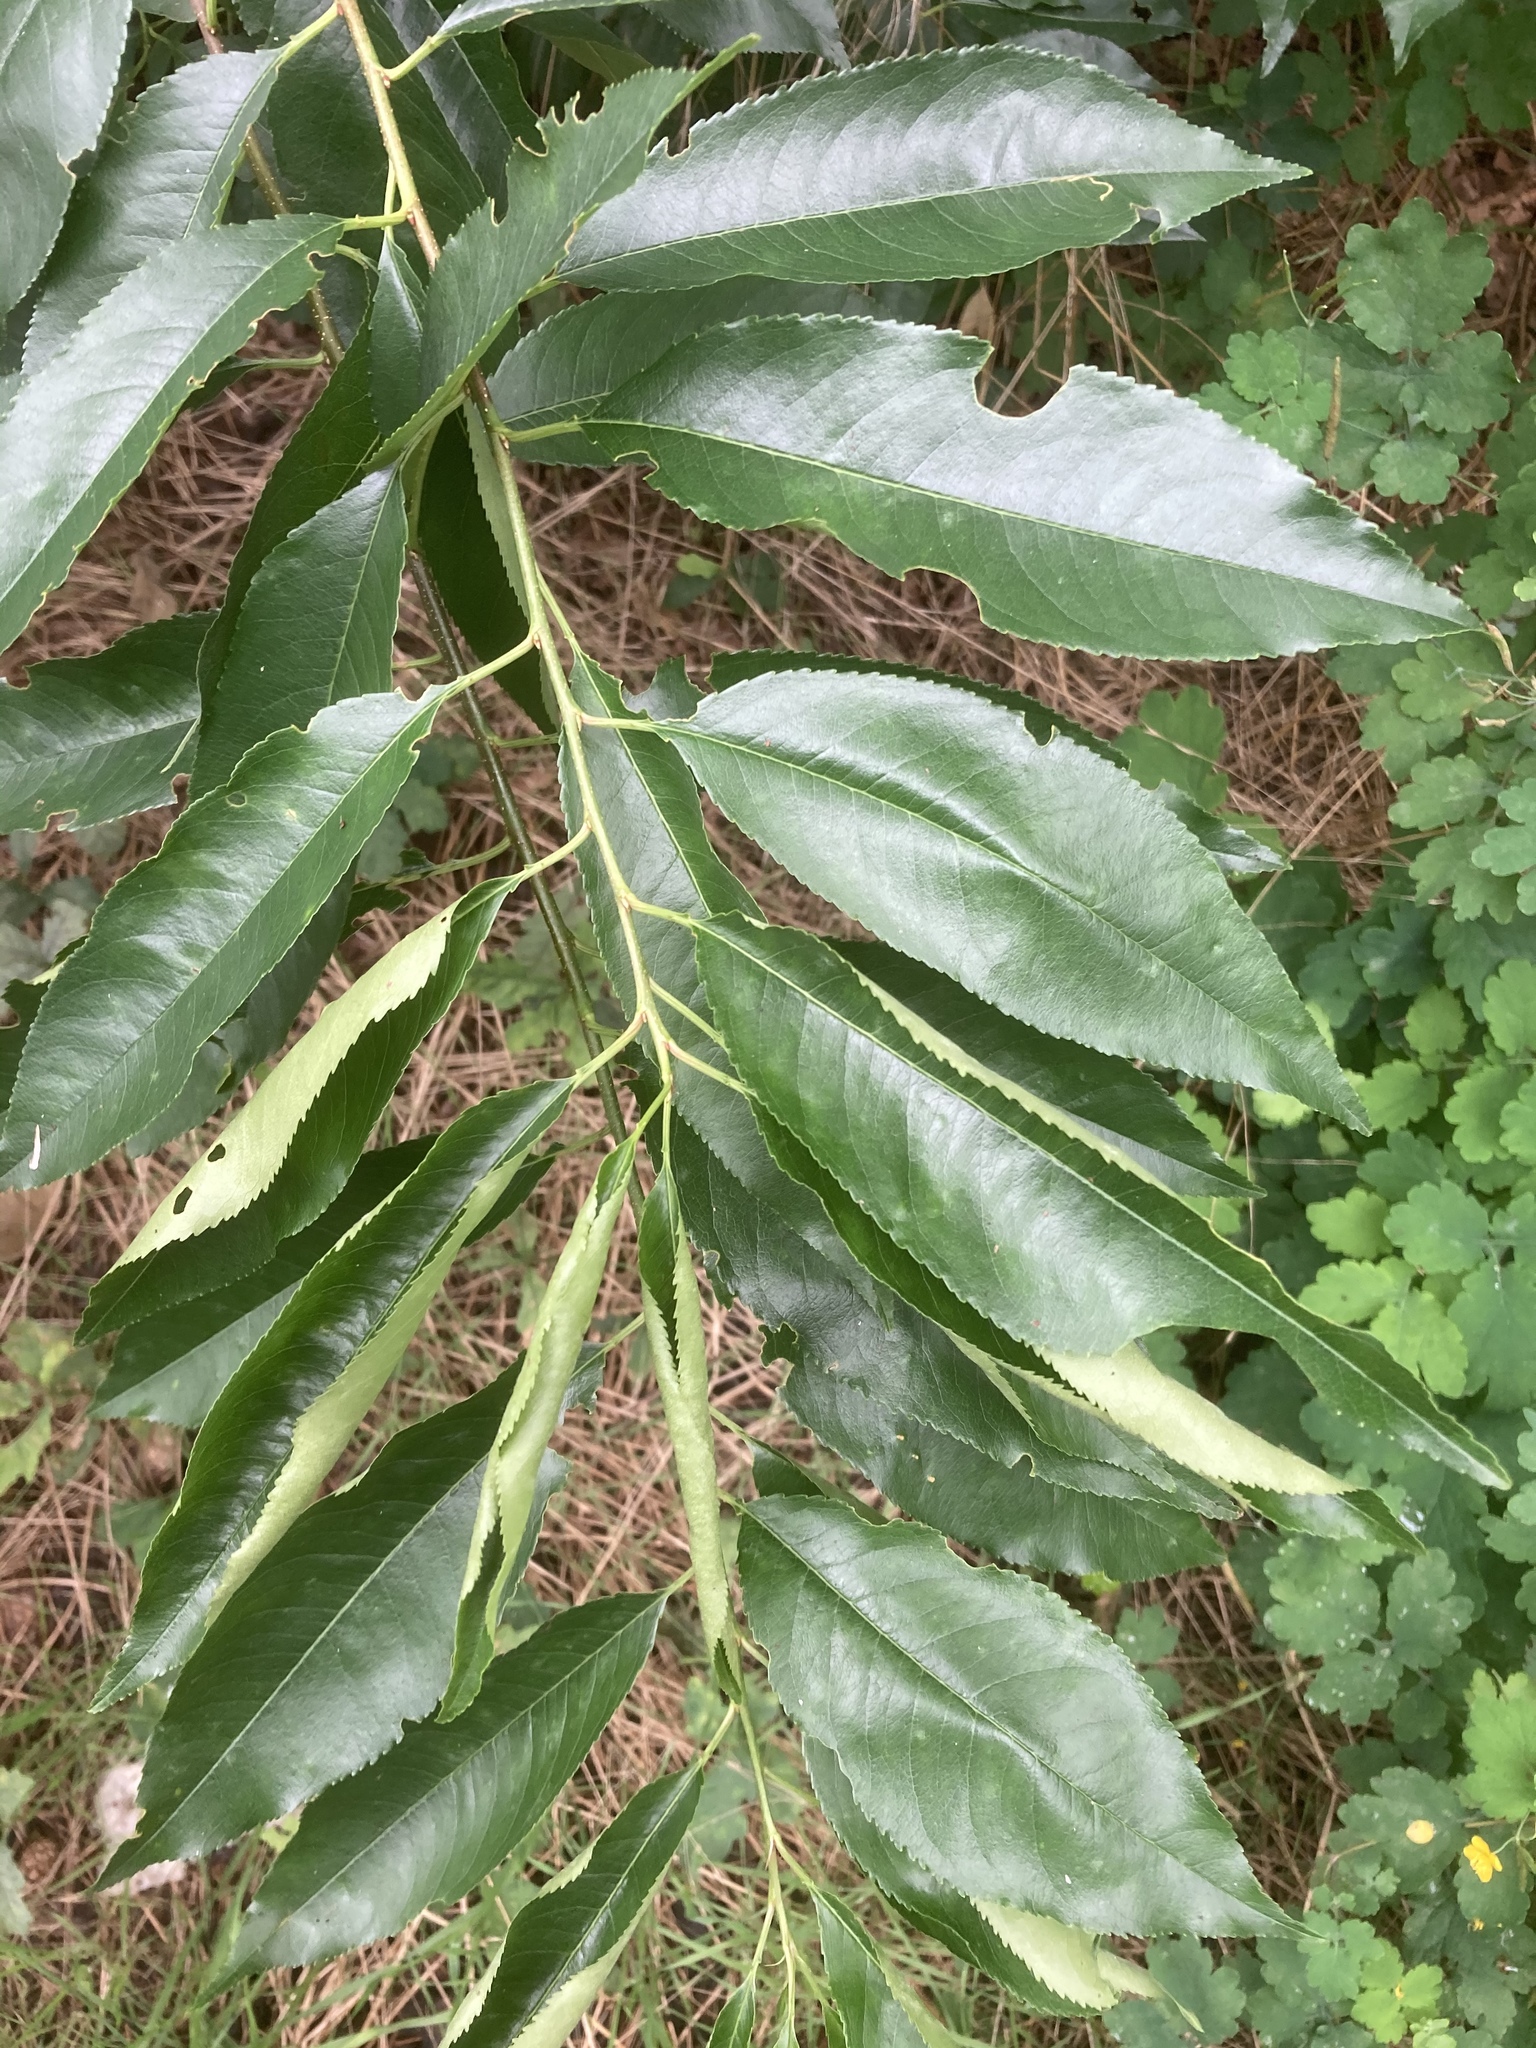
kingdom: Plantae
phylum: Tracheophyta
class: Magnoliopsida
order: Rosales
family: Rosaceae
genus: Prunus
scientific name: Prunus serotina
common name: Black cherry
